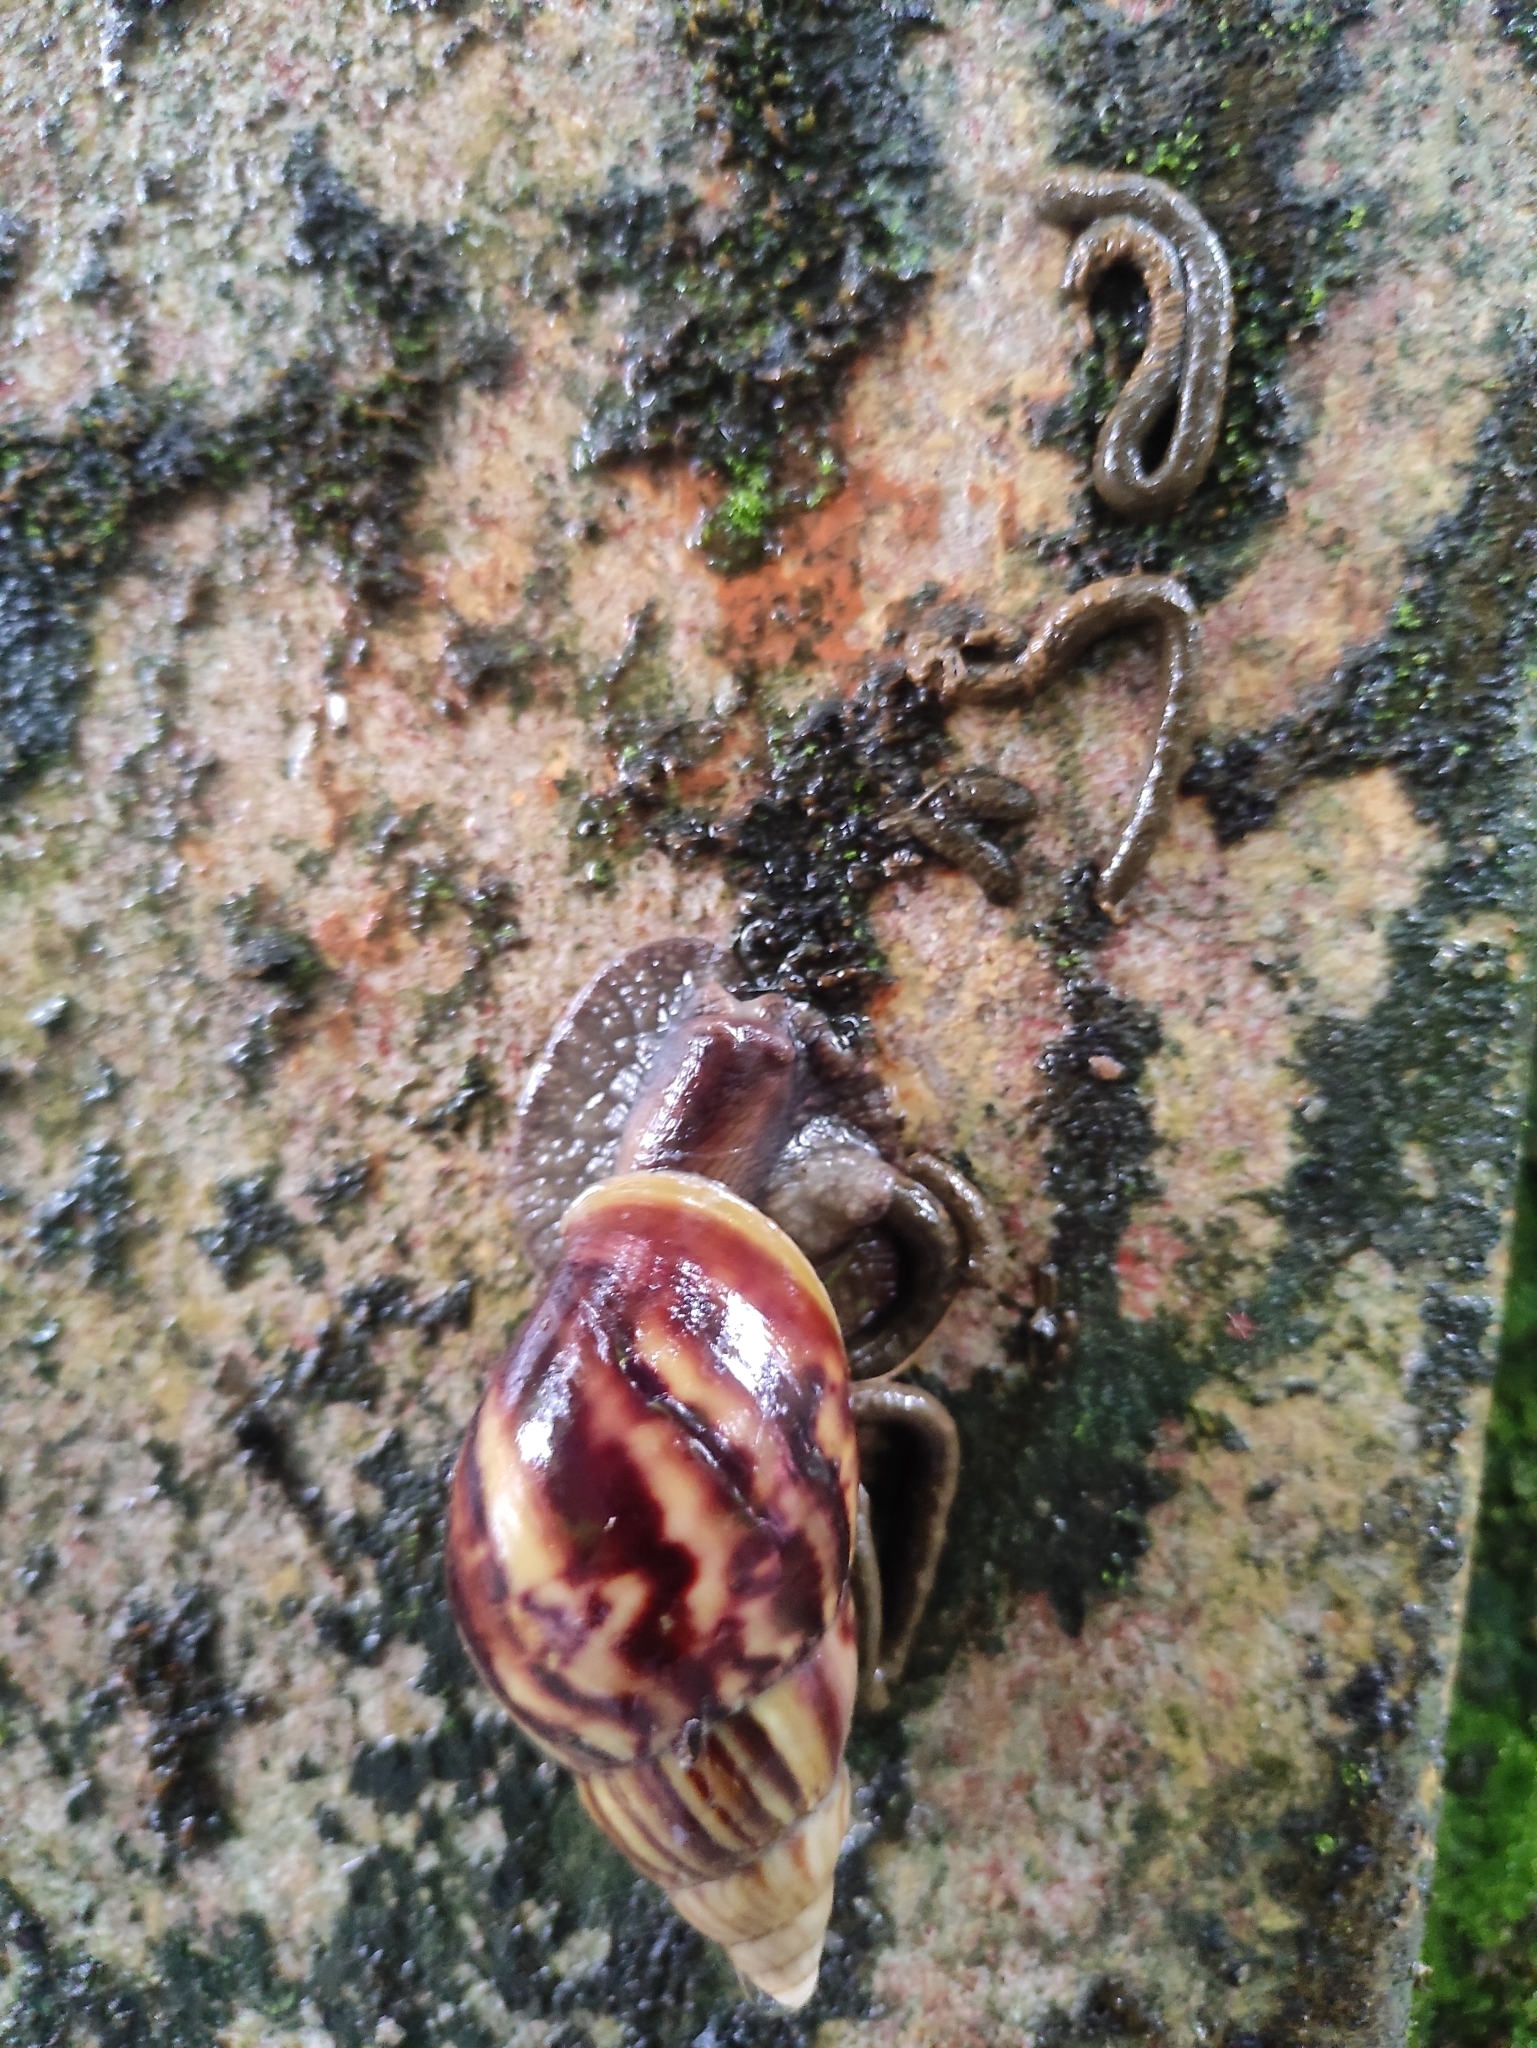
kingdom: Animalia
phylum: Mollusca
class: Gastropoda
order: Stylommatophora
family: Achatinidae
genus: Lissachatina
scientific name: Lissachatina fulica
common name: Giant african snail
